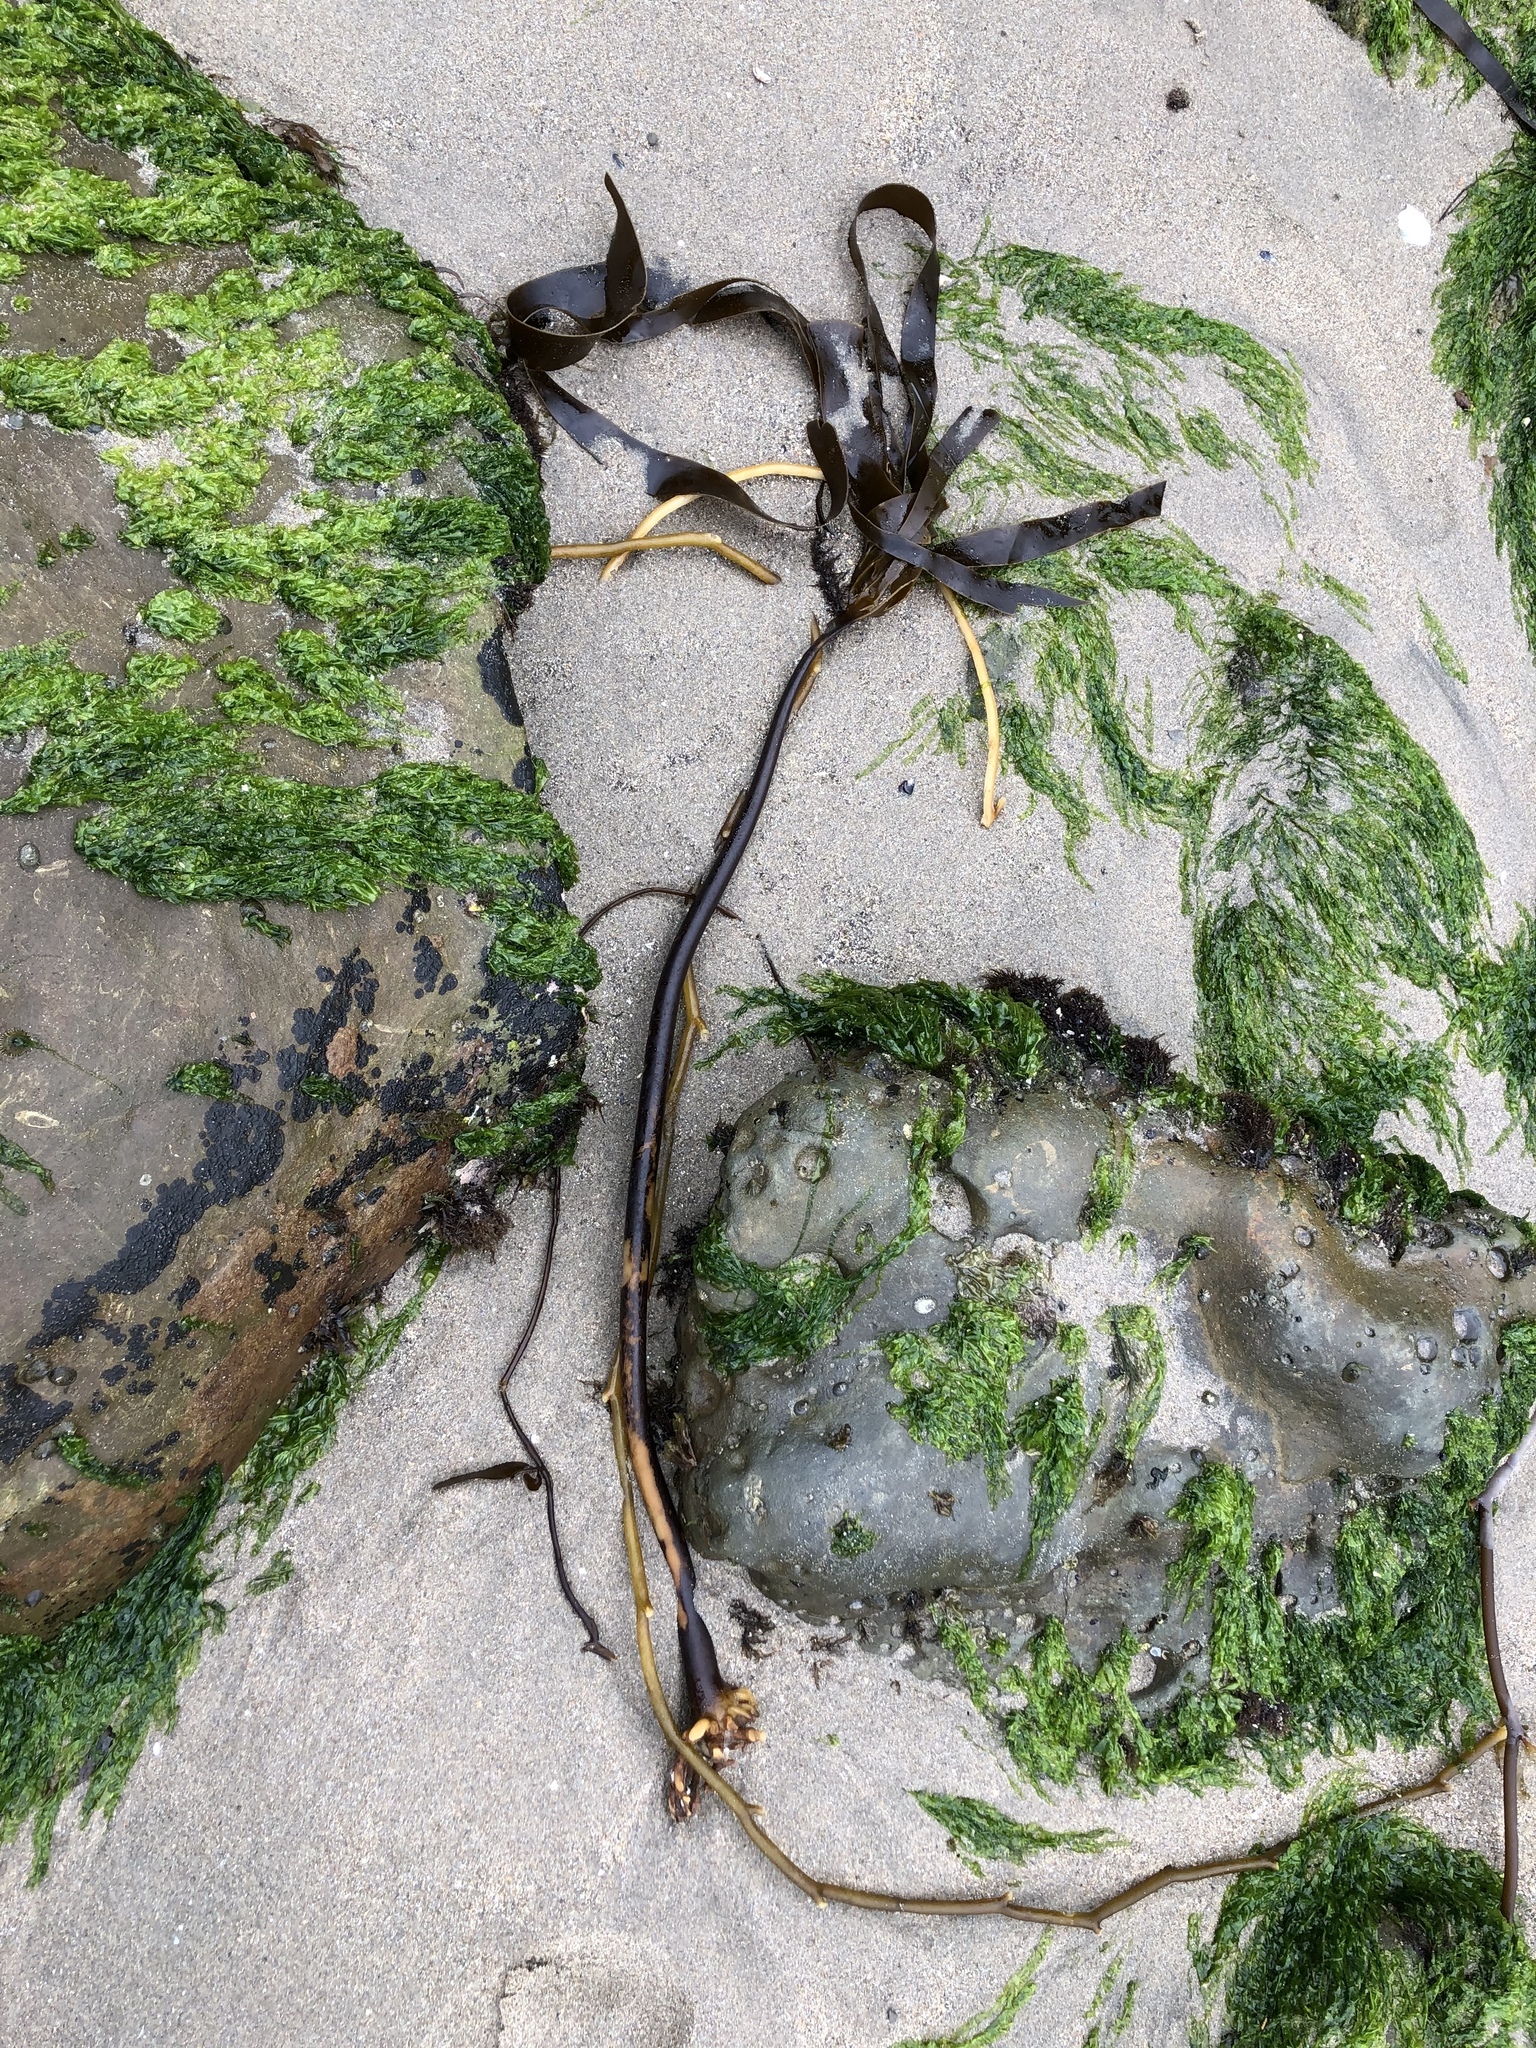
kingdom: Chromista
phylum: Ochrophyta
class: Phaeophyceae
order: Laminariales
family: Laminariaceae
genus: Laminaria
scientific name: Laminaria setchellii
